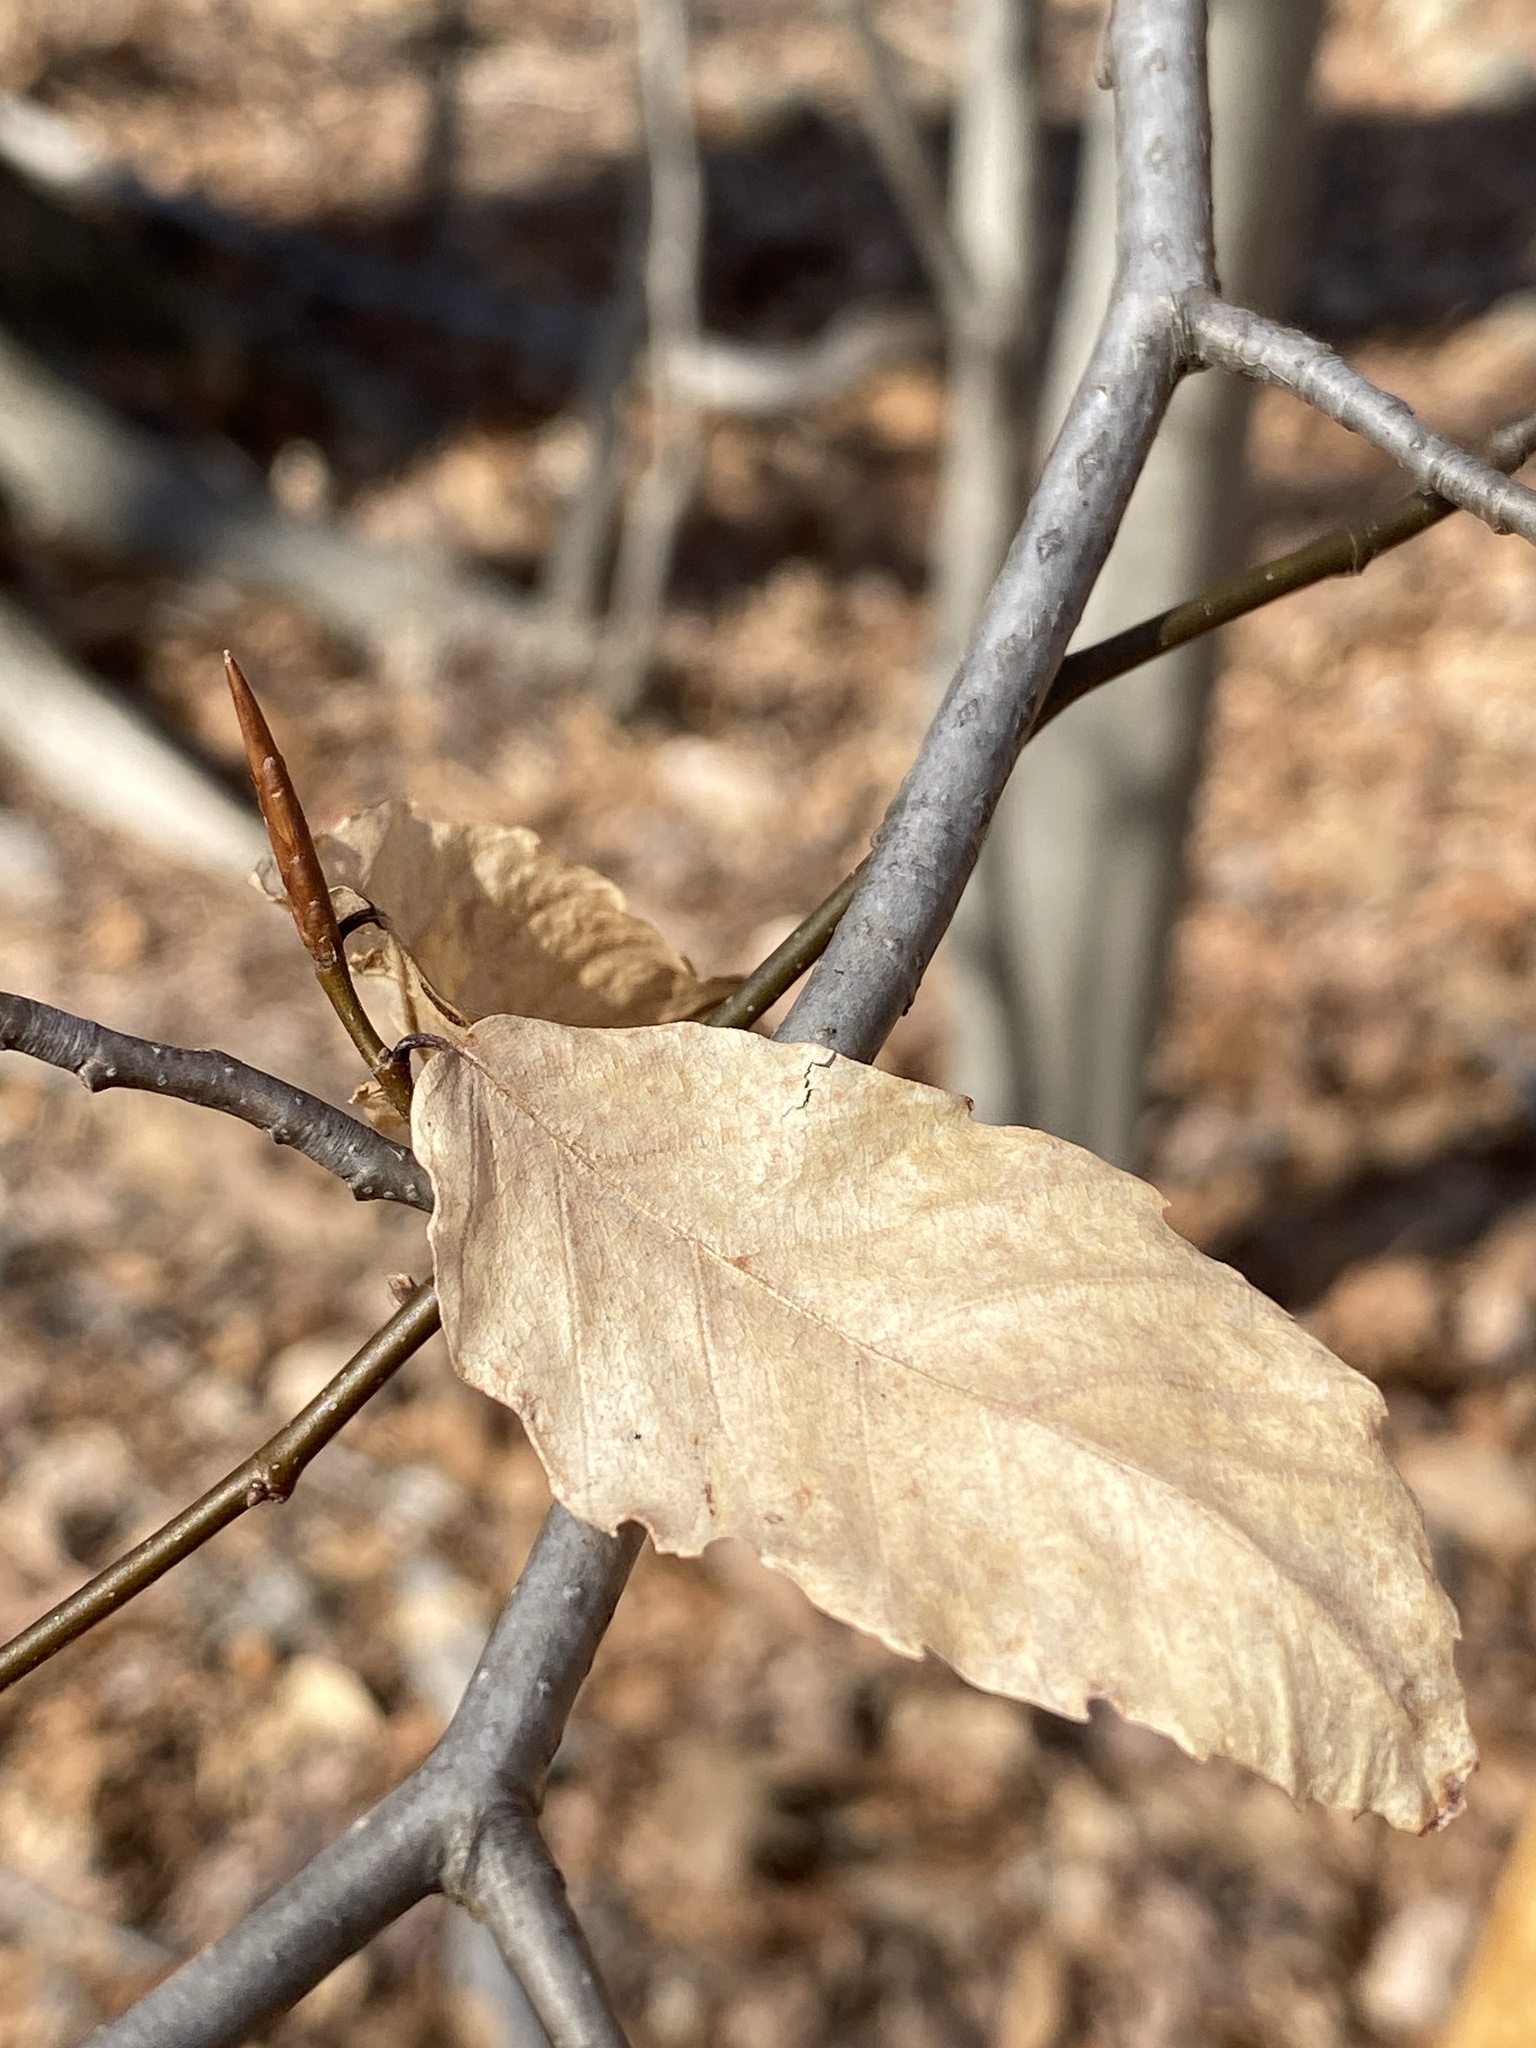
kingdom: Plantae
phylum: Tracheophyta
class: Magnoliopsida
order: Fagales
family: Fagaceae
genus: Fagus
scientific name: Fagus grandifolia
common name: American beech
